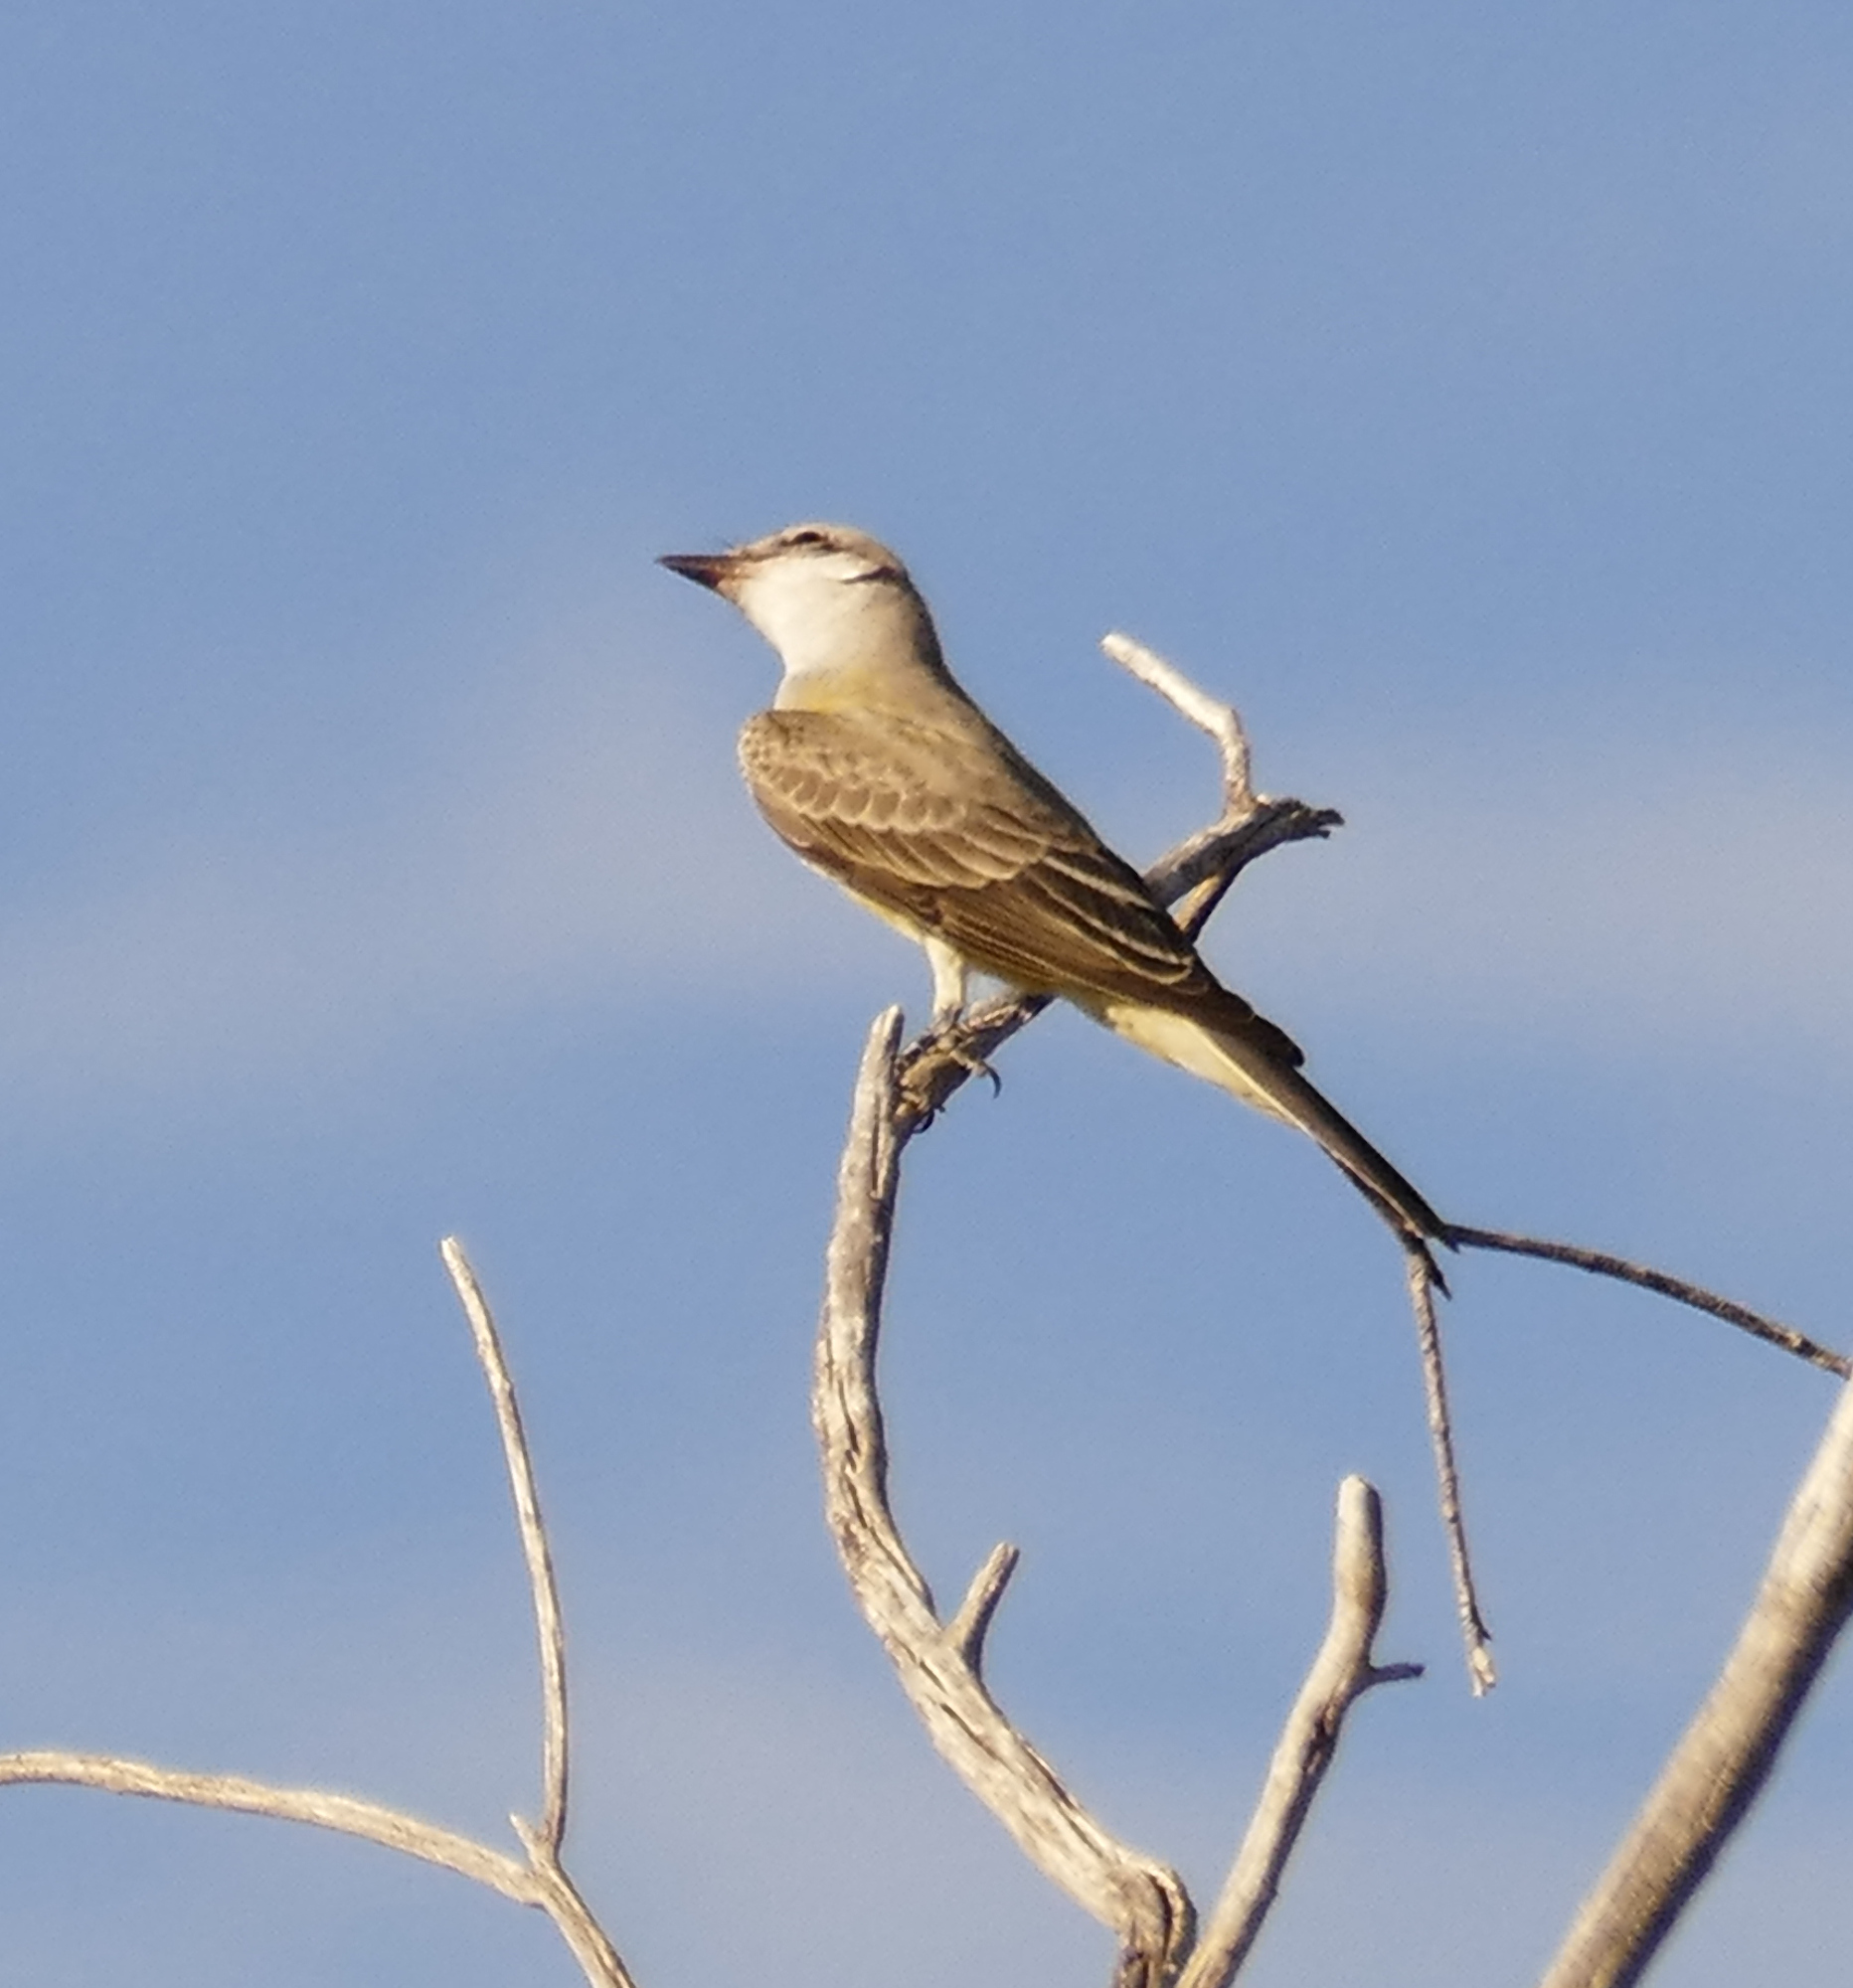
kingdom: Animalia
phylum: Chordata
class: Aves
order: Passeriformes
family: Tyrannidae
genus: Tyrannus
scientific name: Tyrannus verticalis
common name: Western kingbird
